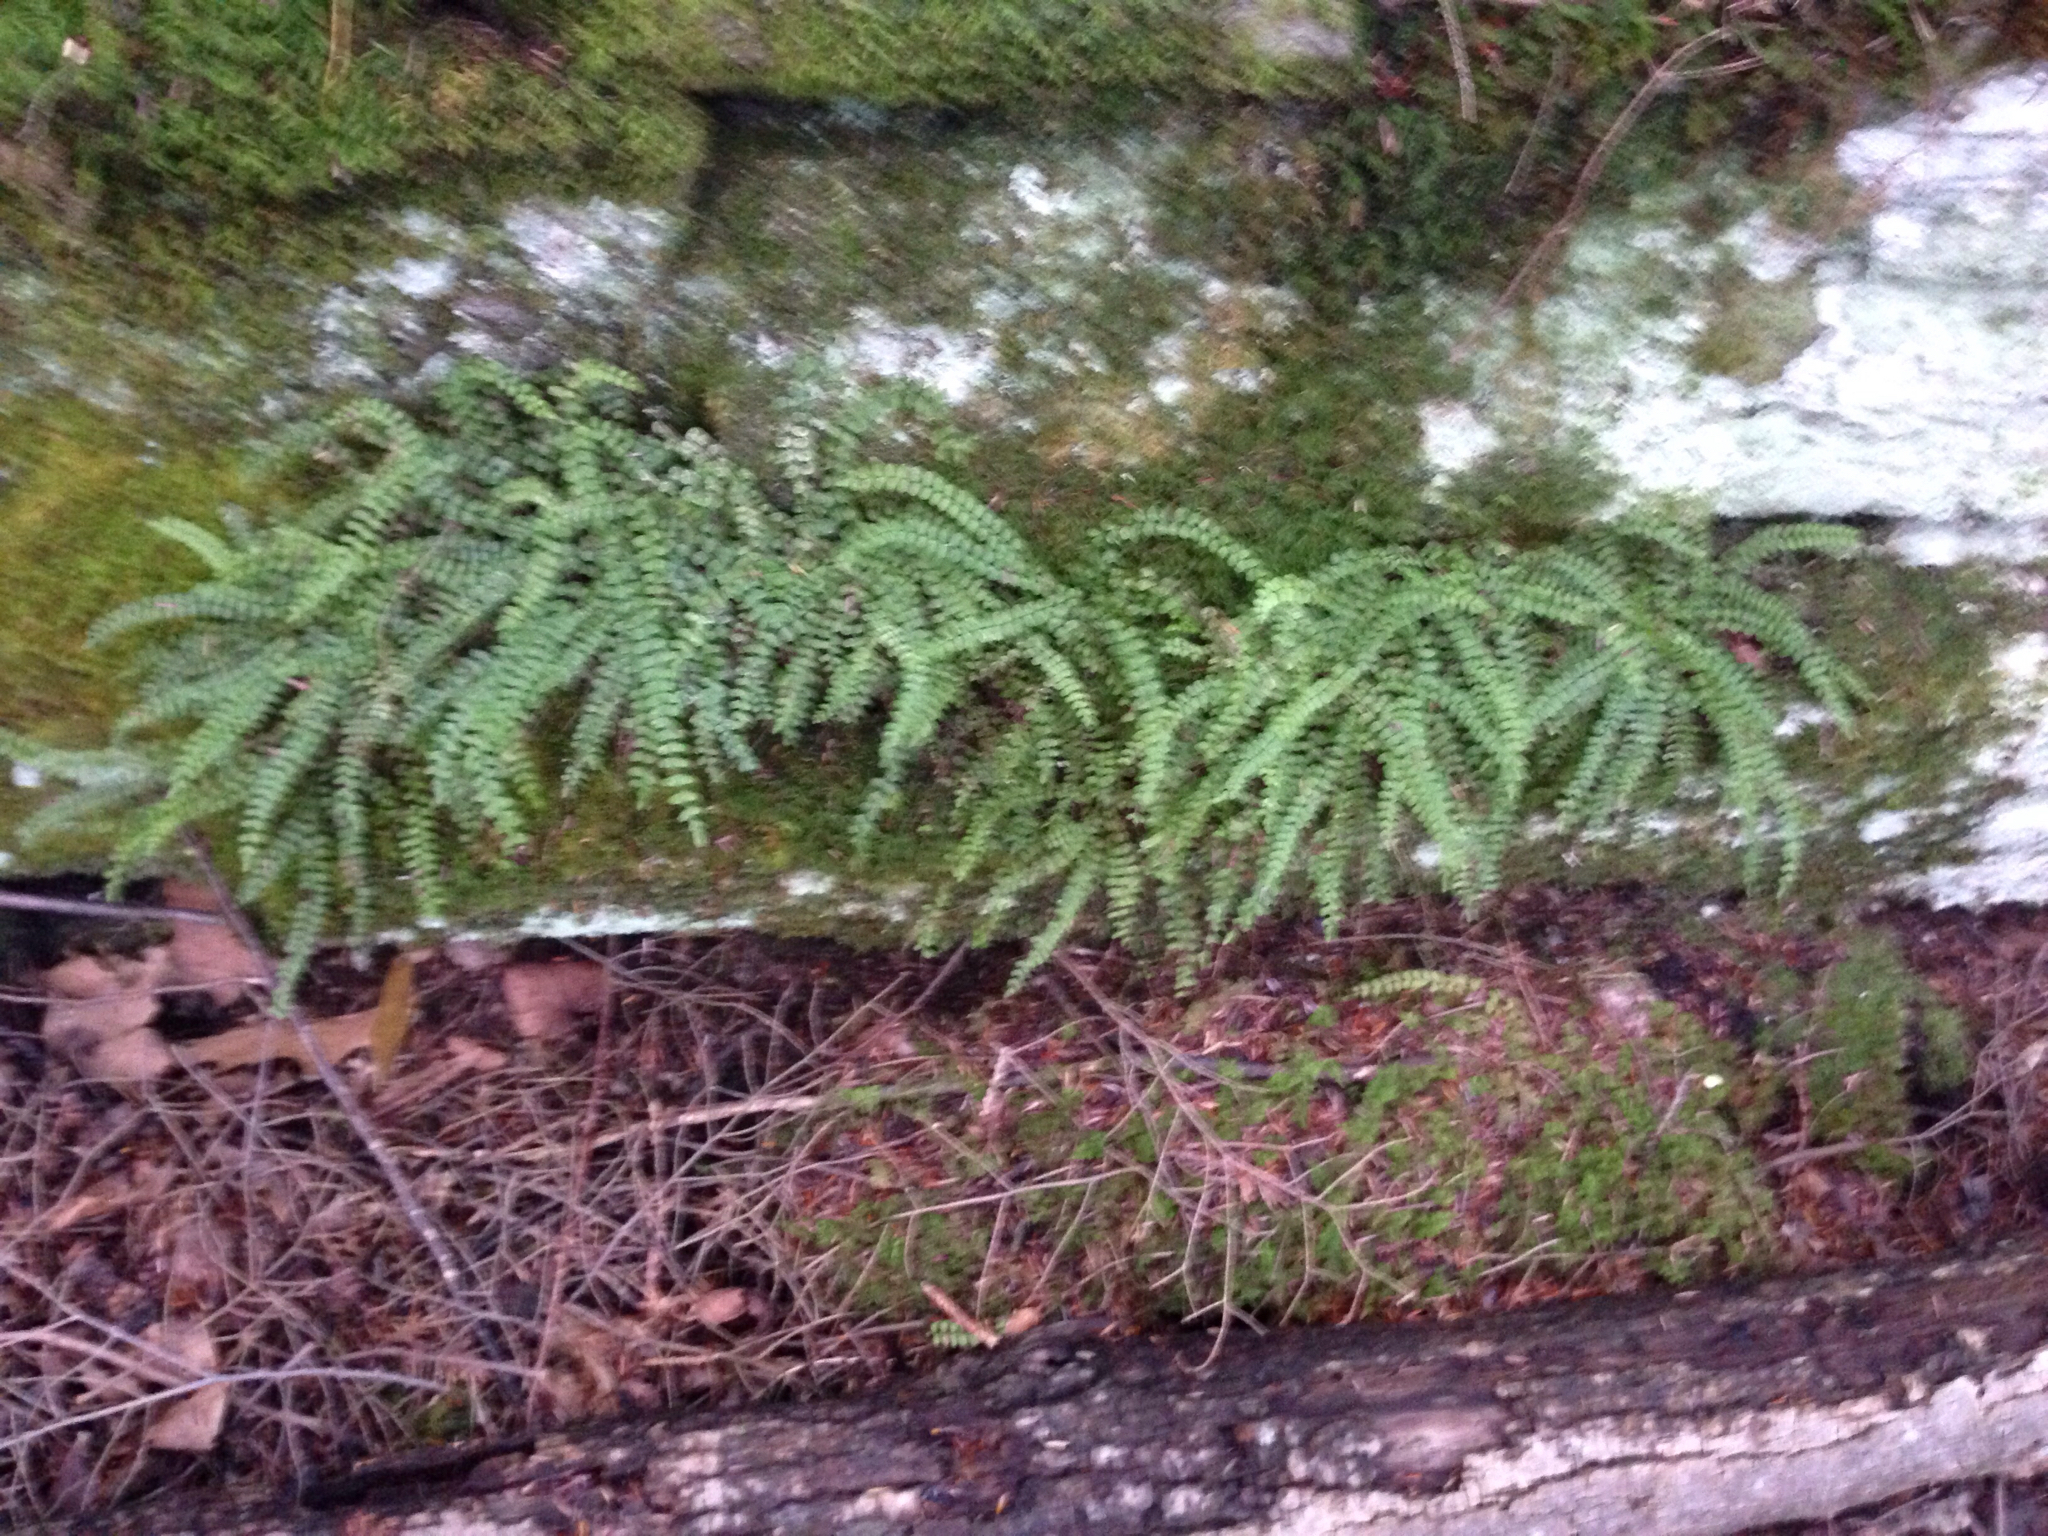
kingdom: Plantae
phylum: Tracheophyta
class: Polypodiopsida
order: Polypodiales
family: Aspleniaceae
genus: Asplenium
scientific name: Asplenium trichomanes
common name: Maidenhair spleenwort
